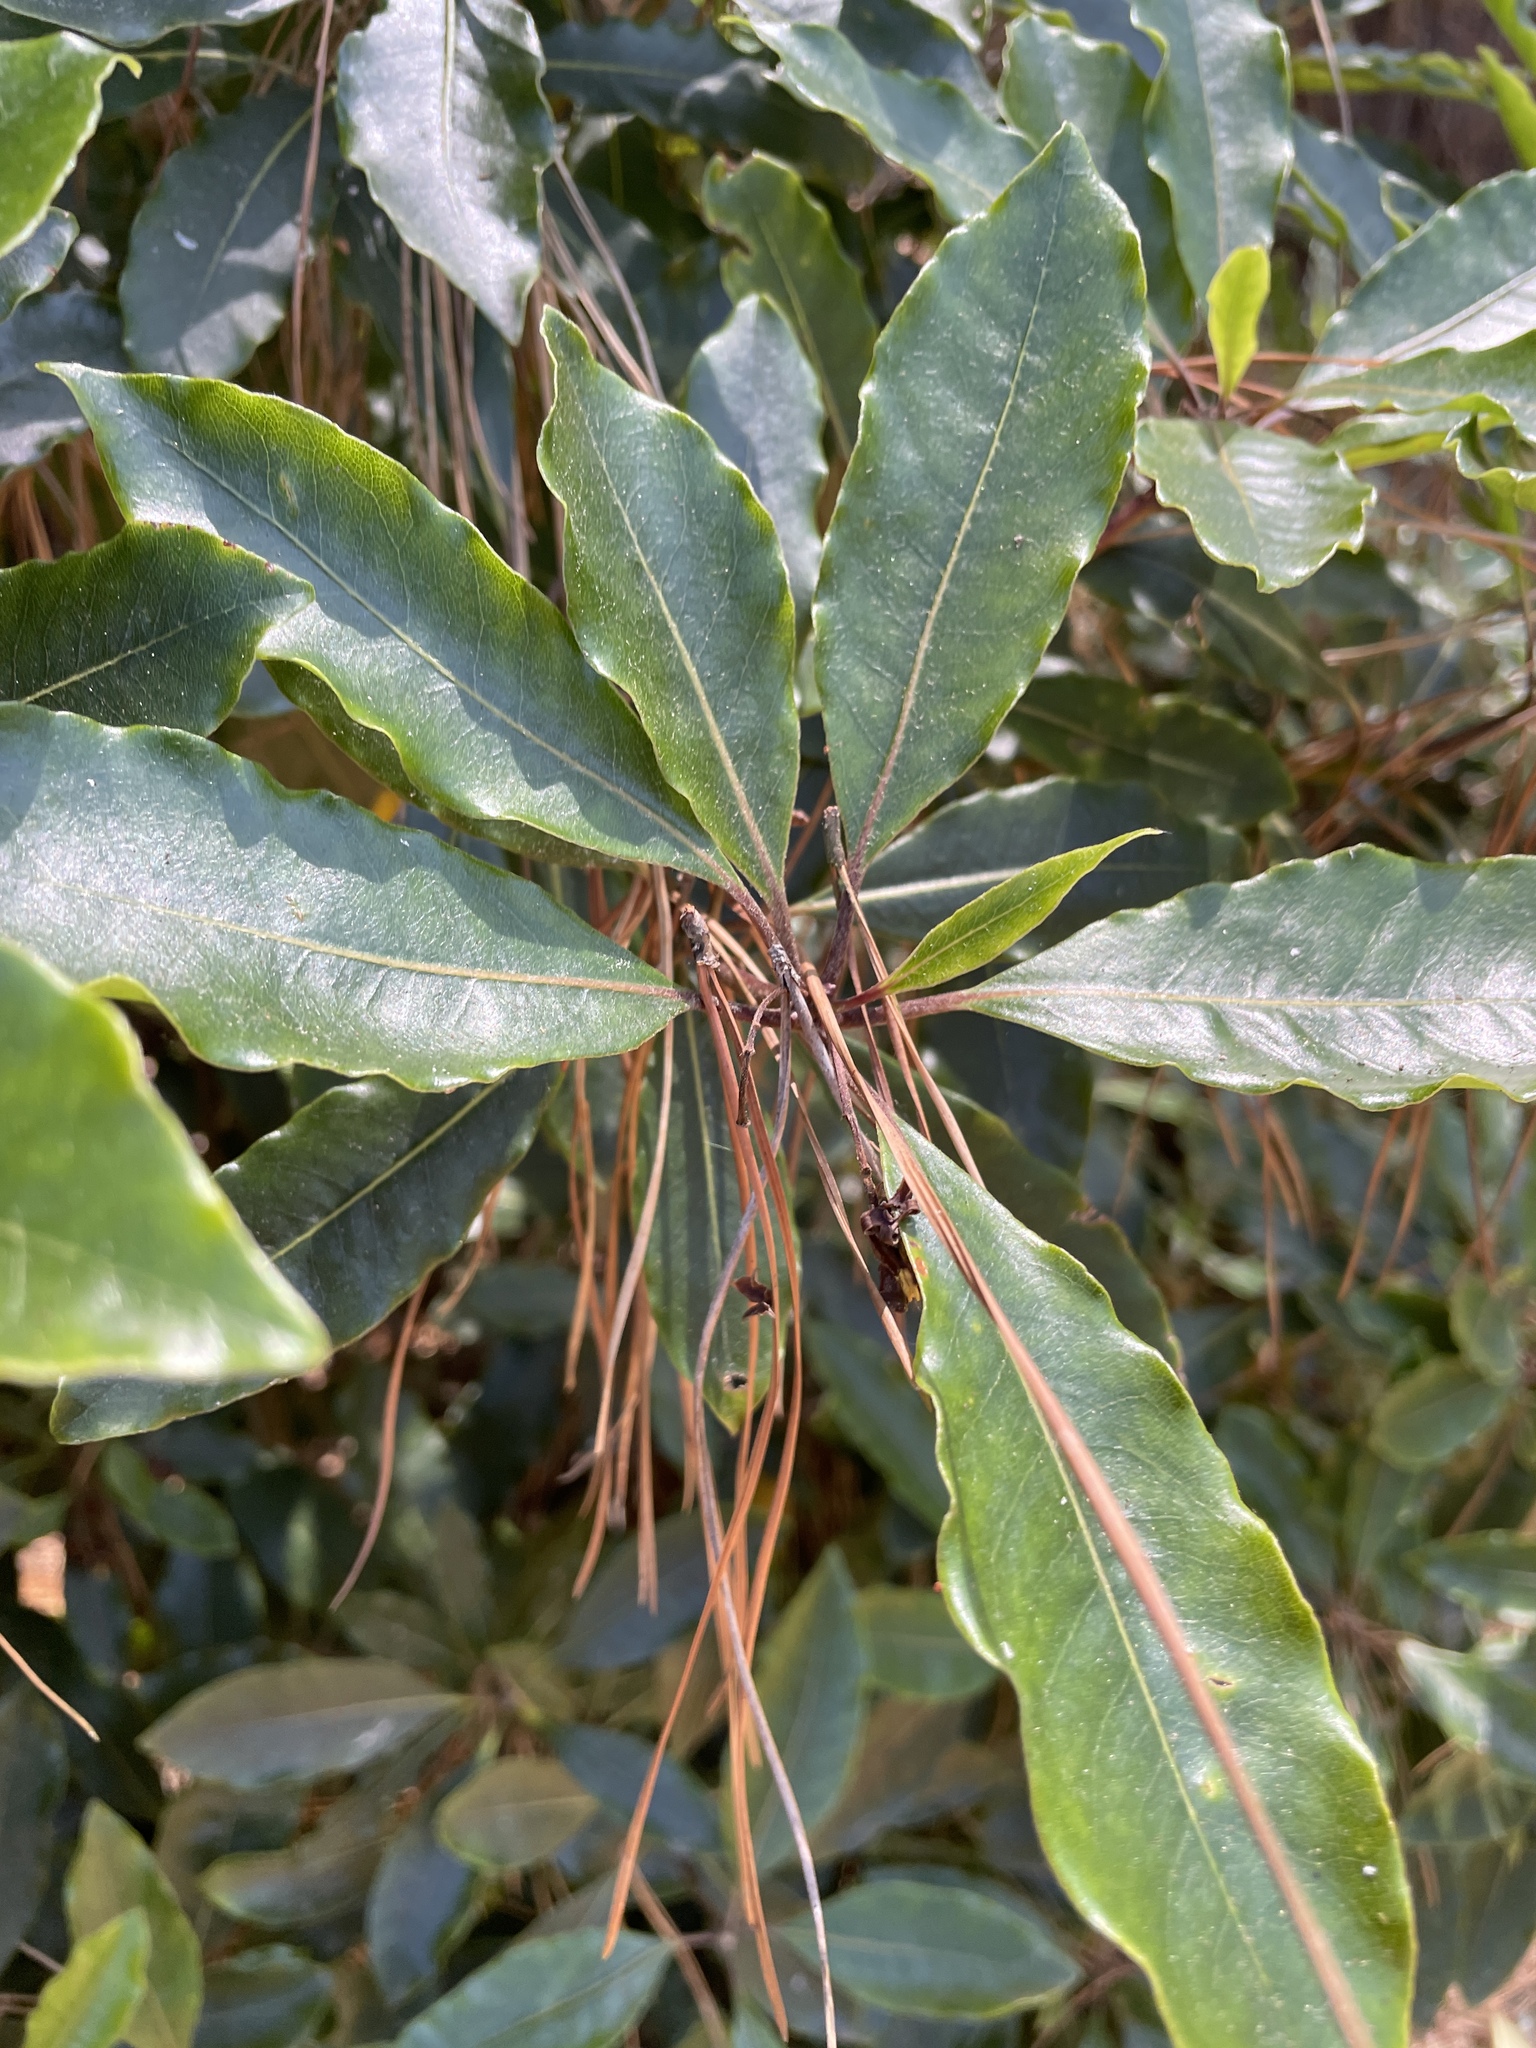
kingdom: Plantae
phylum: Tracheophyta
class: Magnoliopsida
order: Apiales
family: Pittosporaceae
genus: Pittosporum
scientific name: Pittosporum undulatum
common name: Australian cheesewood
